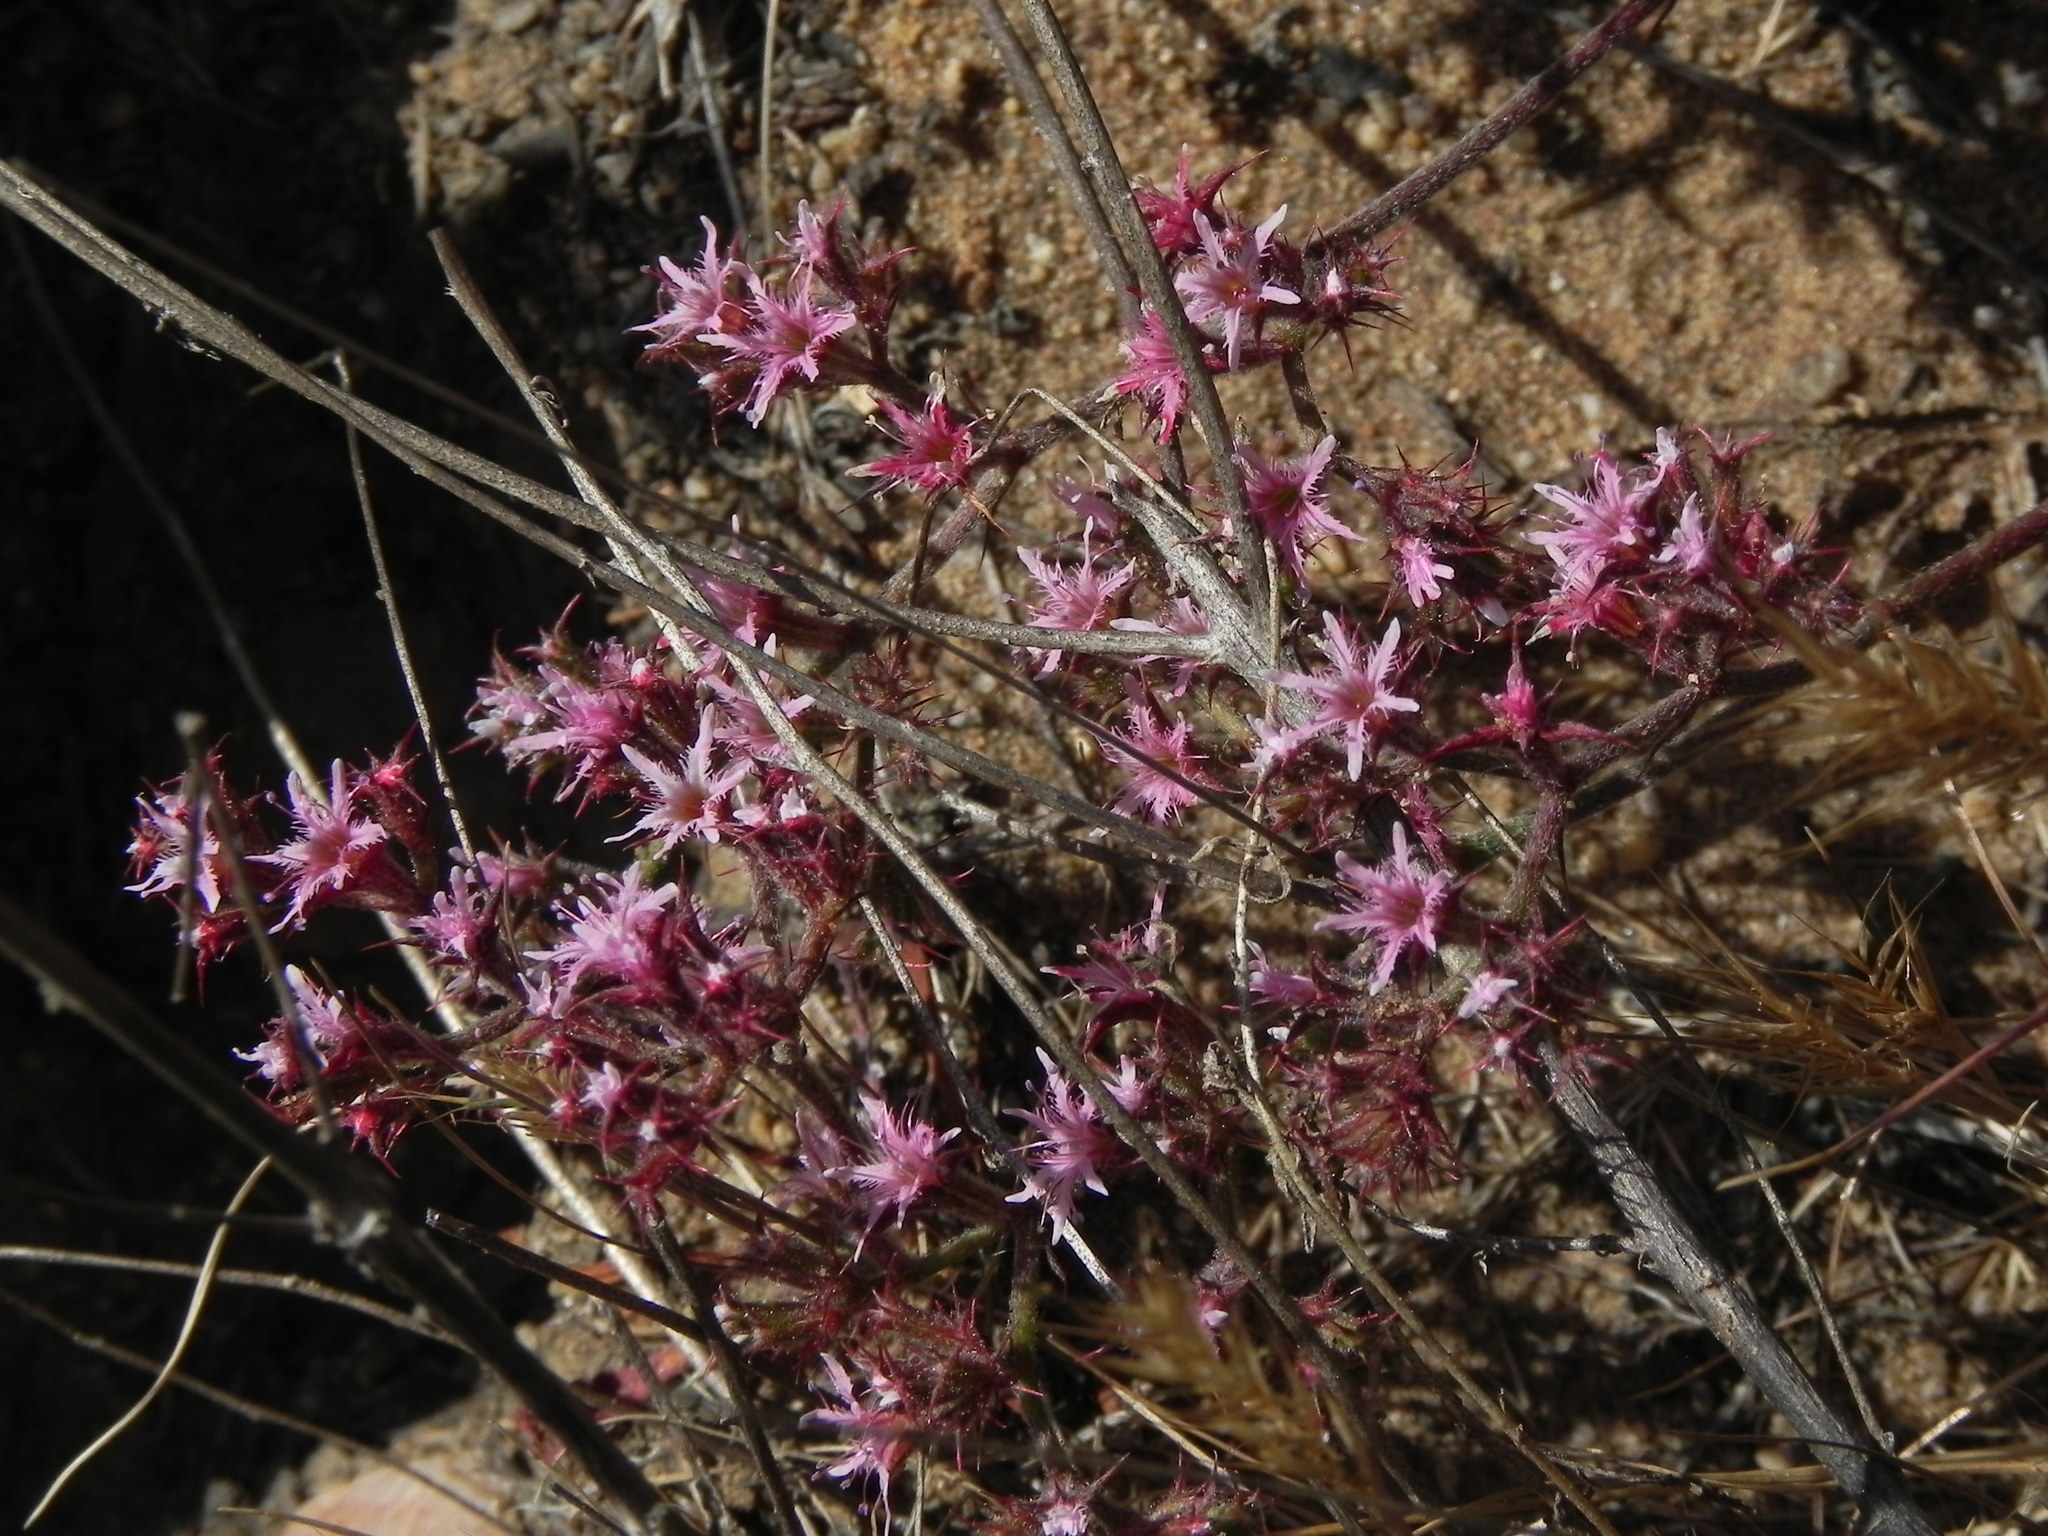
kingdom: Plantae
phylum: Tracheophyta
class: Magnoliopsida
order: Caryophyllales
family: Polygonaceae
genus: Chorizanthe
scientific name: Chorizanthe fimbriata
